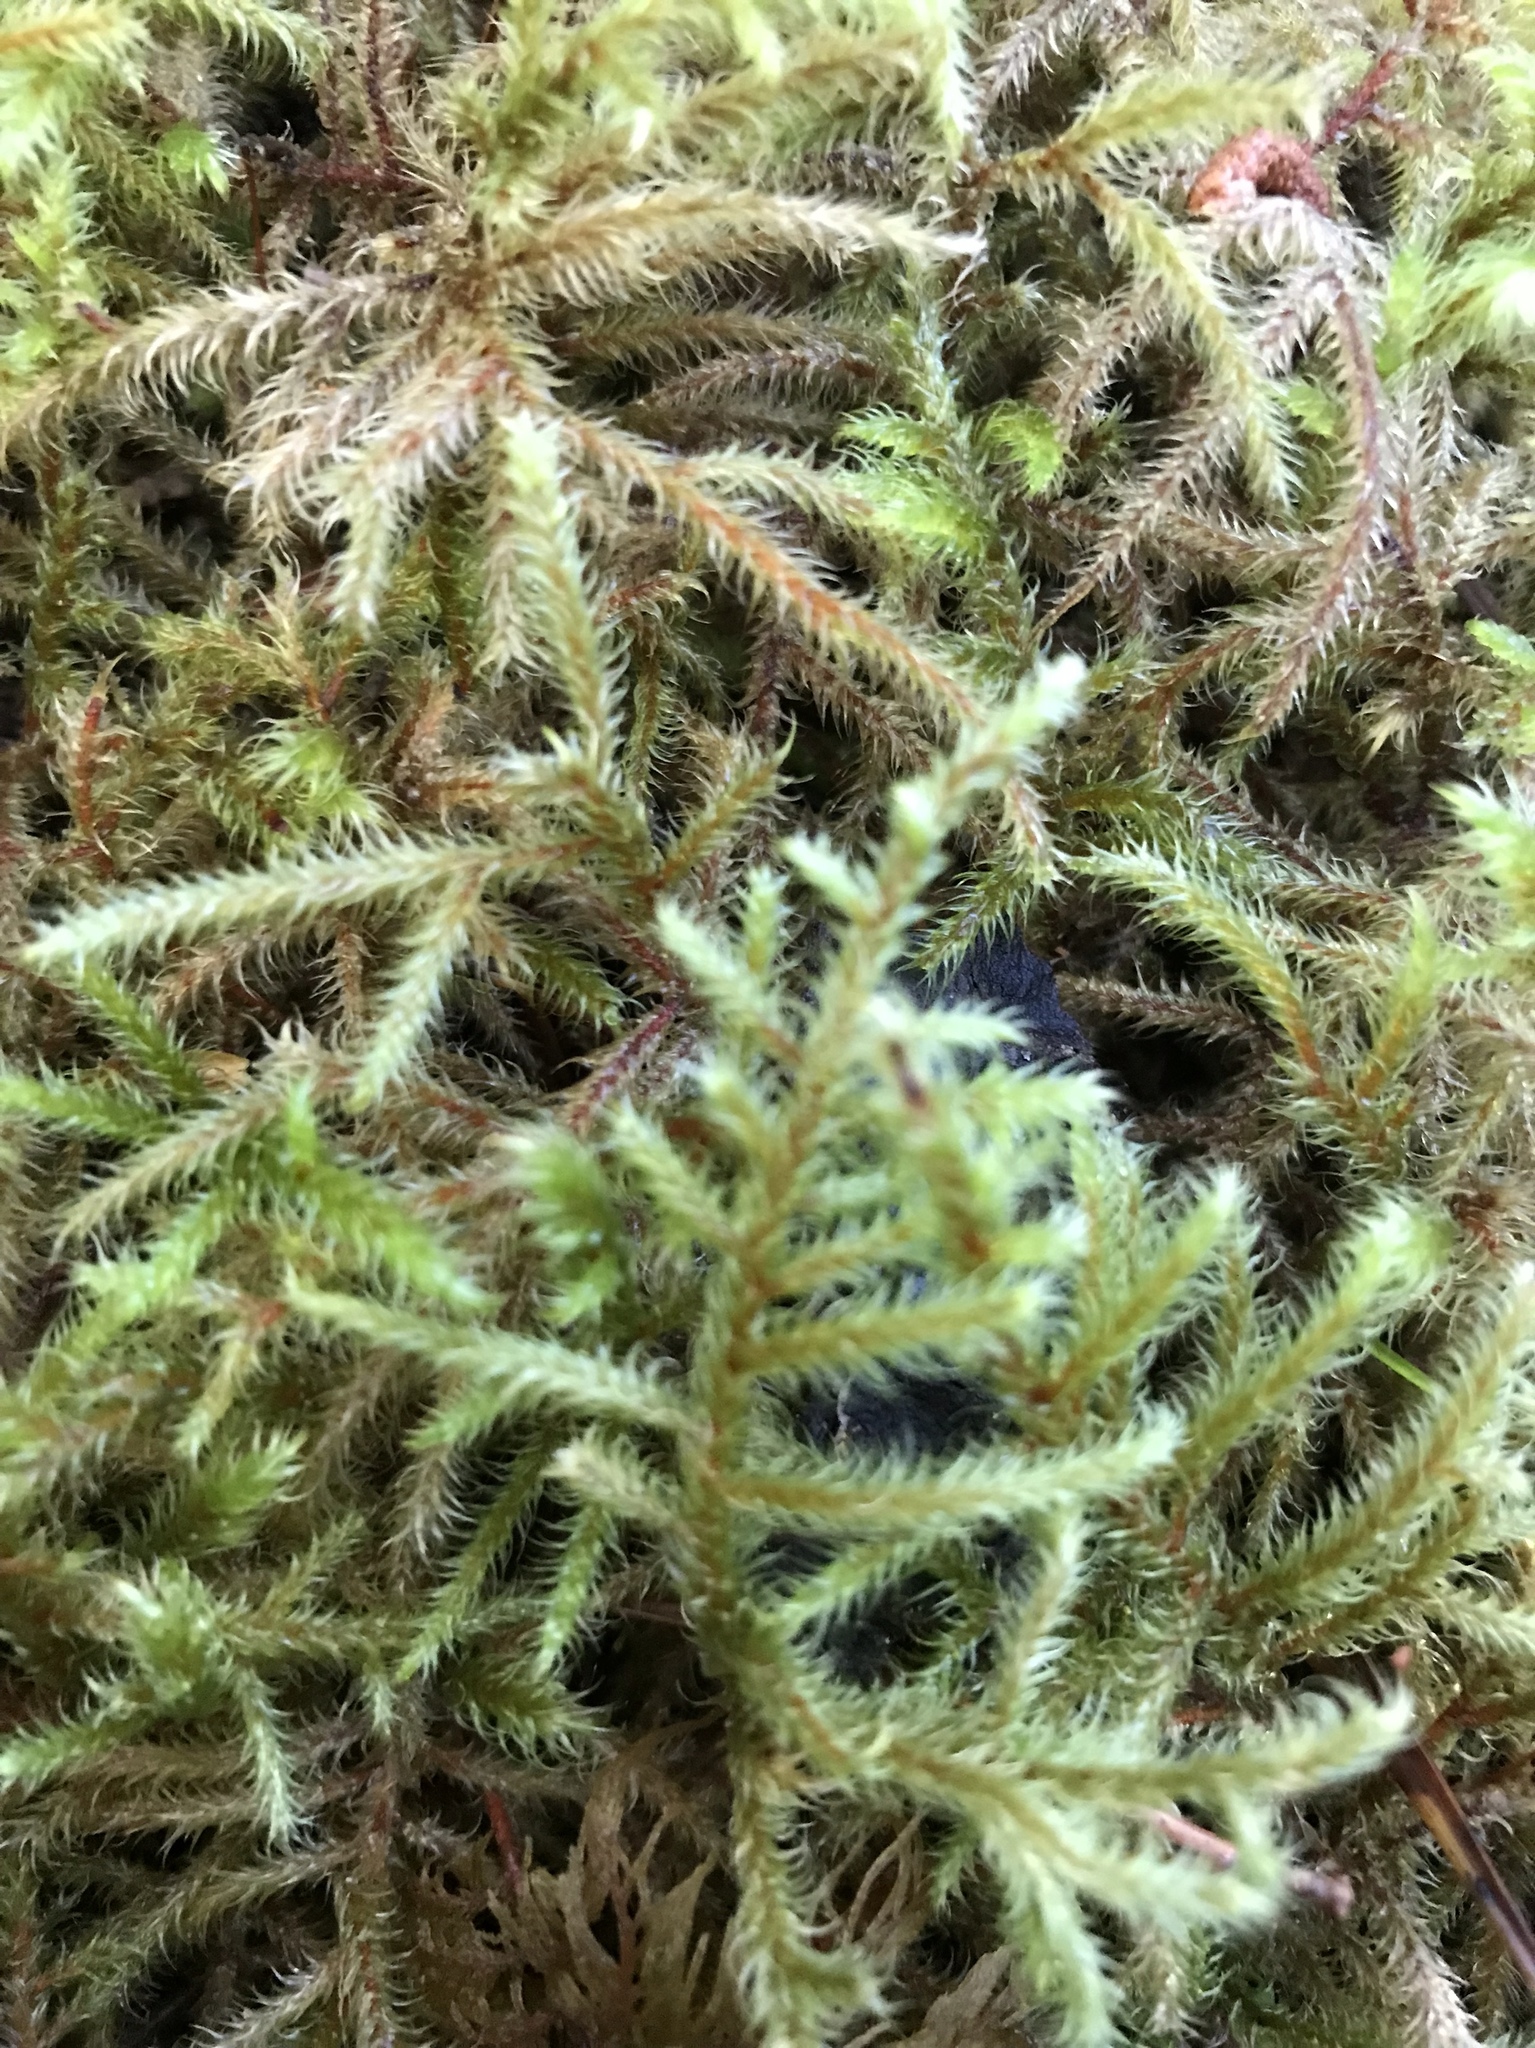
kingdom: Plantae
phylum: Bryophyta
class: Bryopsida
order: Hypnales
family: Hylocomiaceae
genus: Rhytidiadelphus
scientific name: Rhytidiadelphus loreus
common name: Lanky moss
